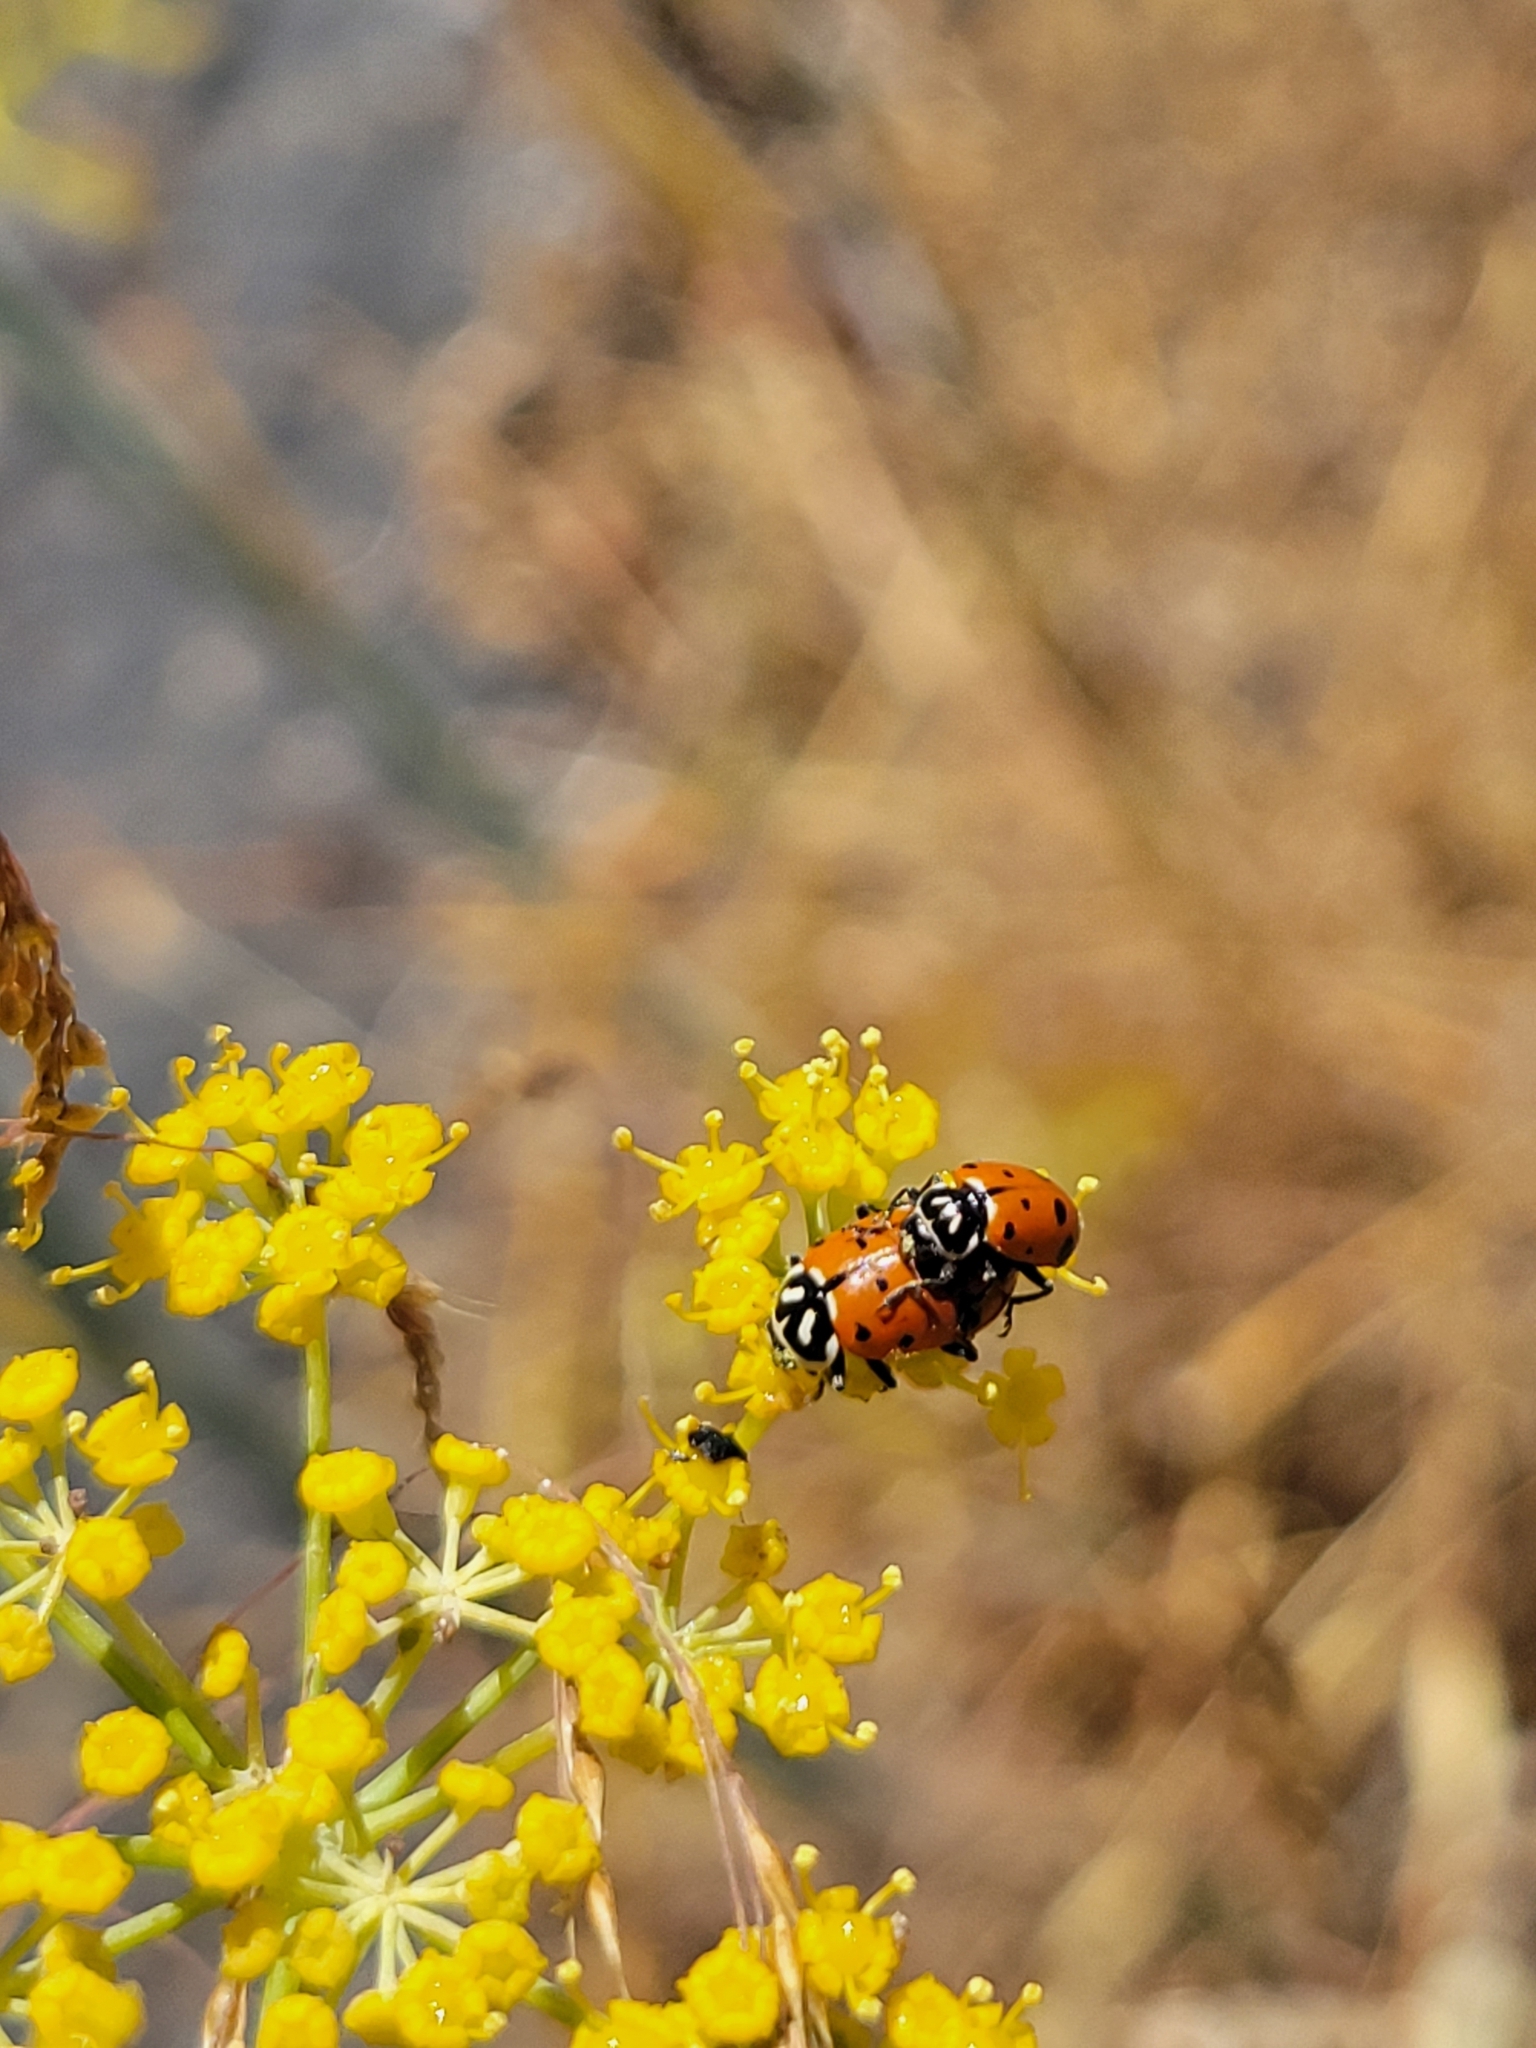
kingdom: Animalia
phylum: Arthropoda
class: Insecta
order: Coleoptera
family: Coccinellidae
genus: Hippodamia
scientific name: Hippodamia convergens
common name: Convergent lady beetle
